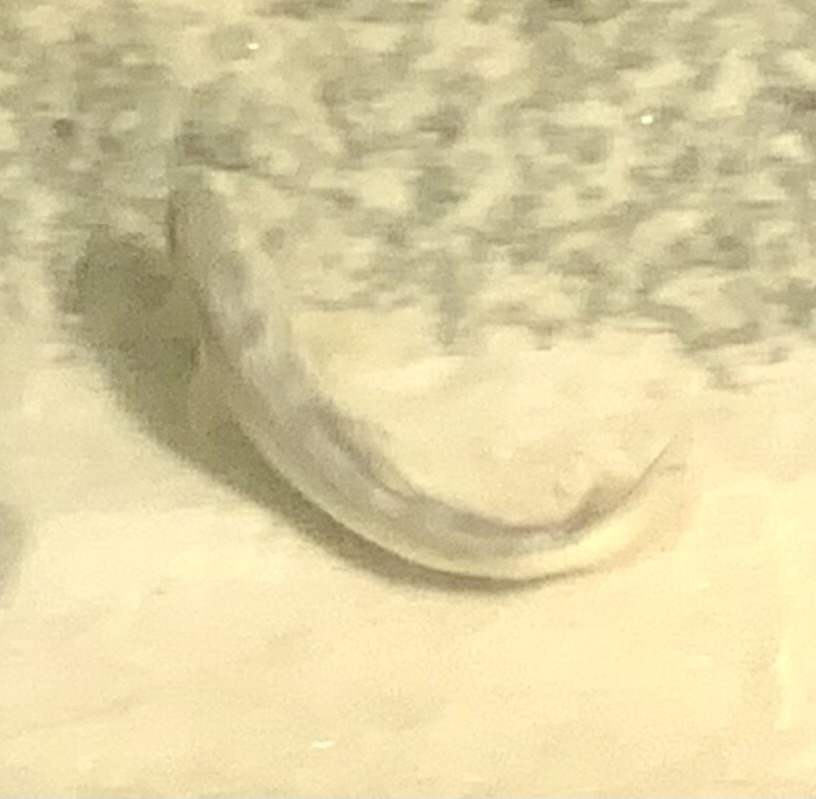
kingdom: Animalia
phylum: Chordata
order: Salmoniformes
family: Salmonidae
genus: Salmo
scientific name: Salmo trutta
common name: Brown trout
